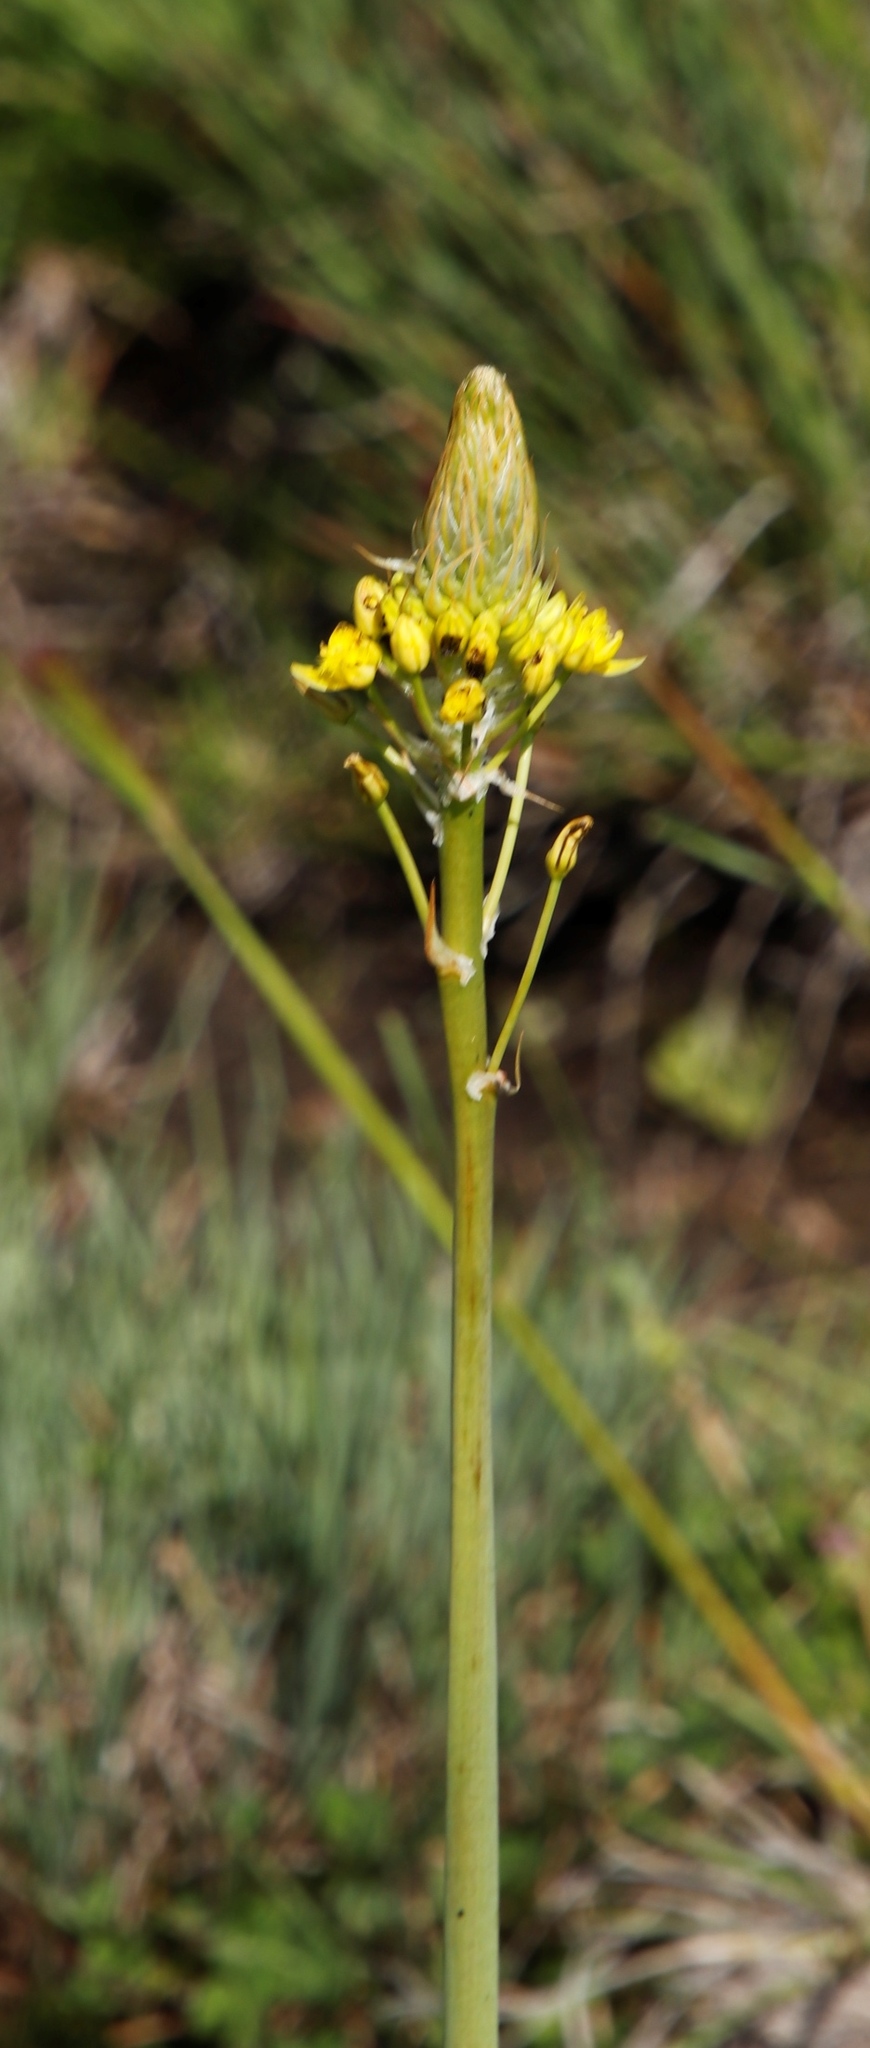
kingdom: Plantae
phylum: Tracheophyta
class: Liliopsida
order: Asparagales
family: Asphodelaceae
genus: Bulbine
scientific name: Bulbine narcissifolia
